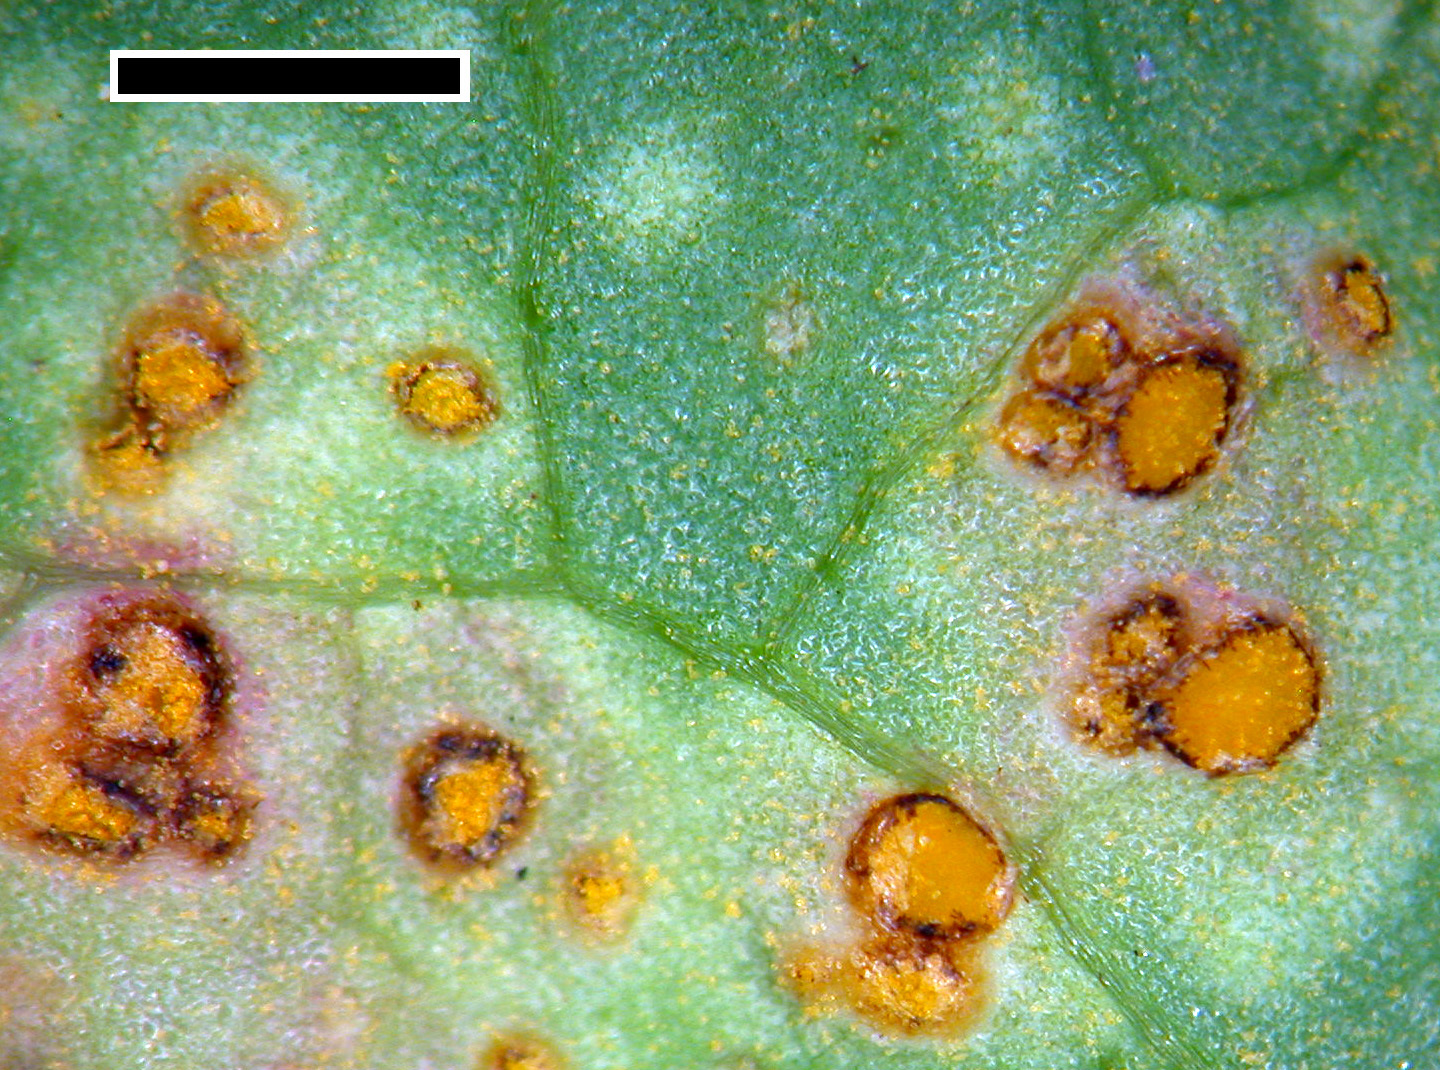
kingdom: Fungi
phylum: Basidiomycota
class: Pucciniomycetes
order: Pucciniales
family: Pucciniaceae
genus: Peristemma
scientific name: Peristemma pseudosphaeria
